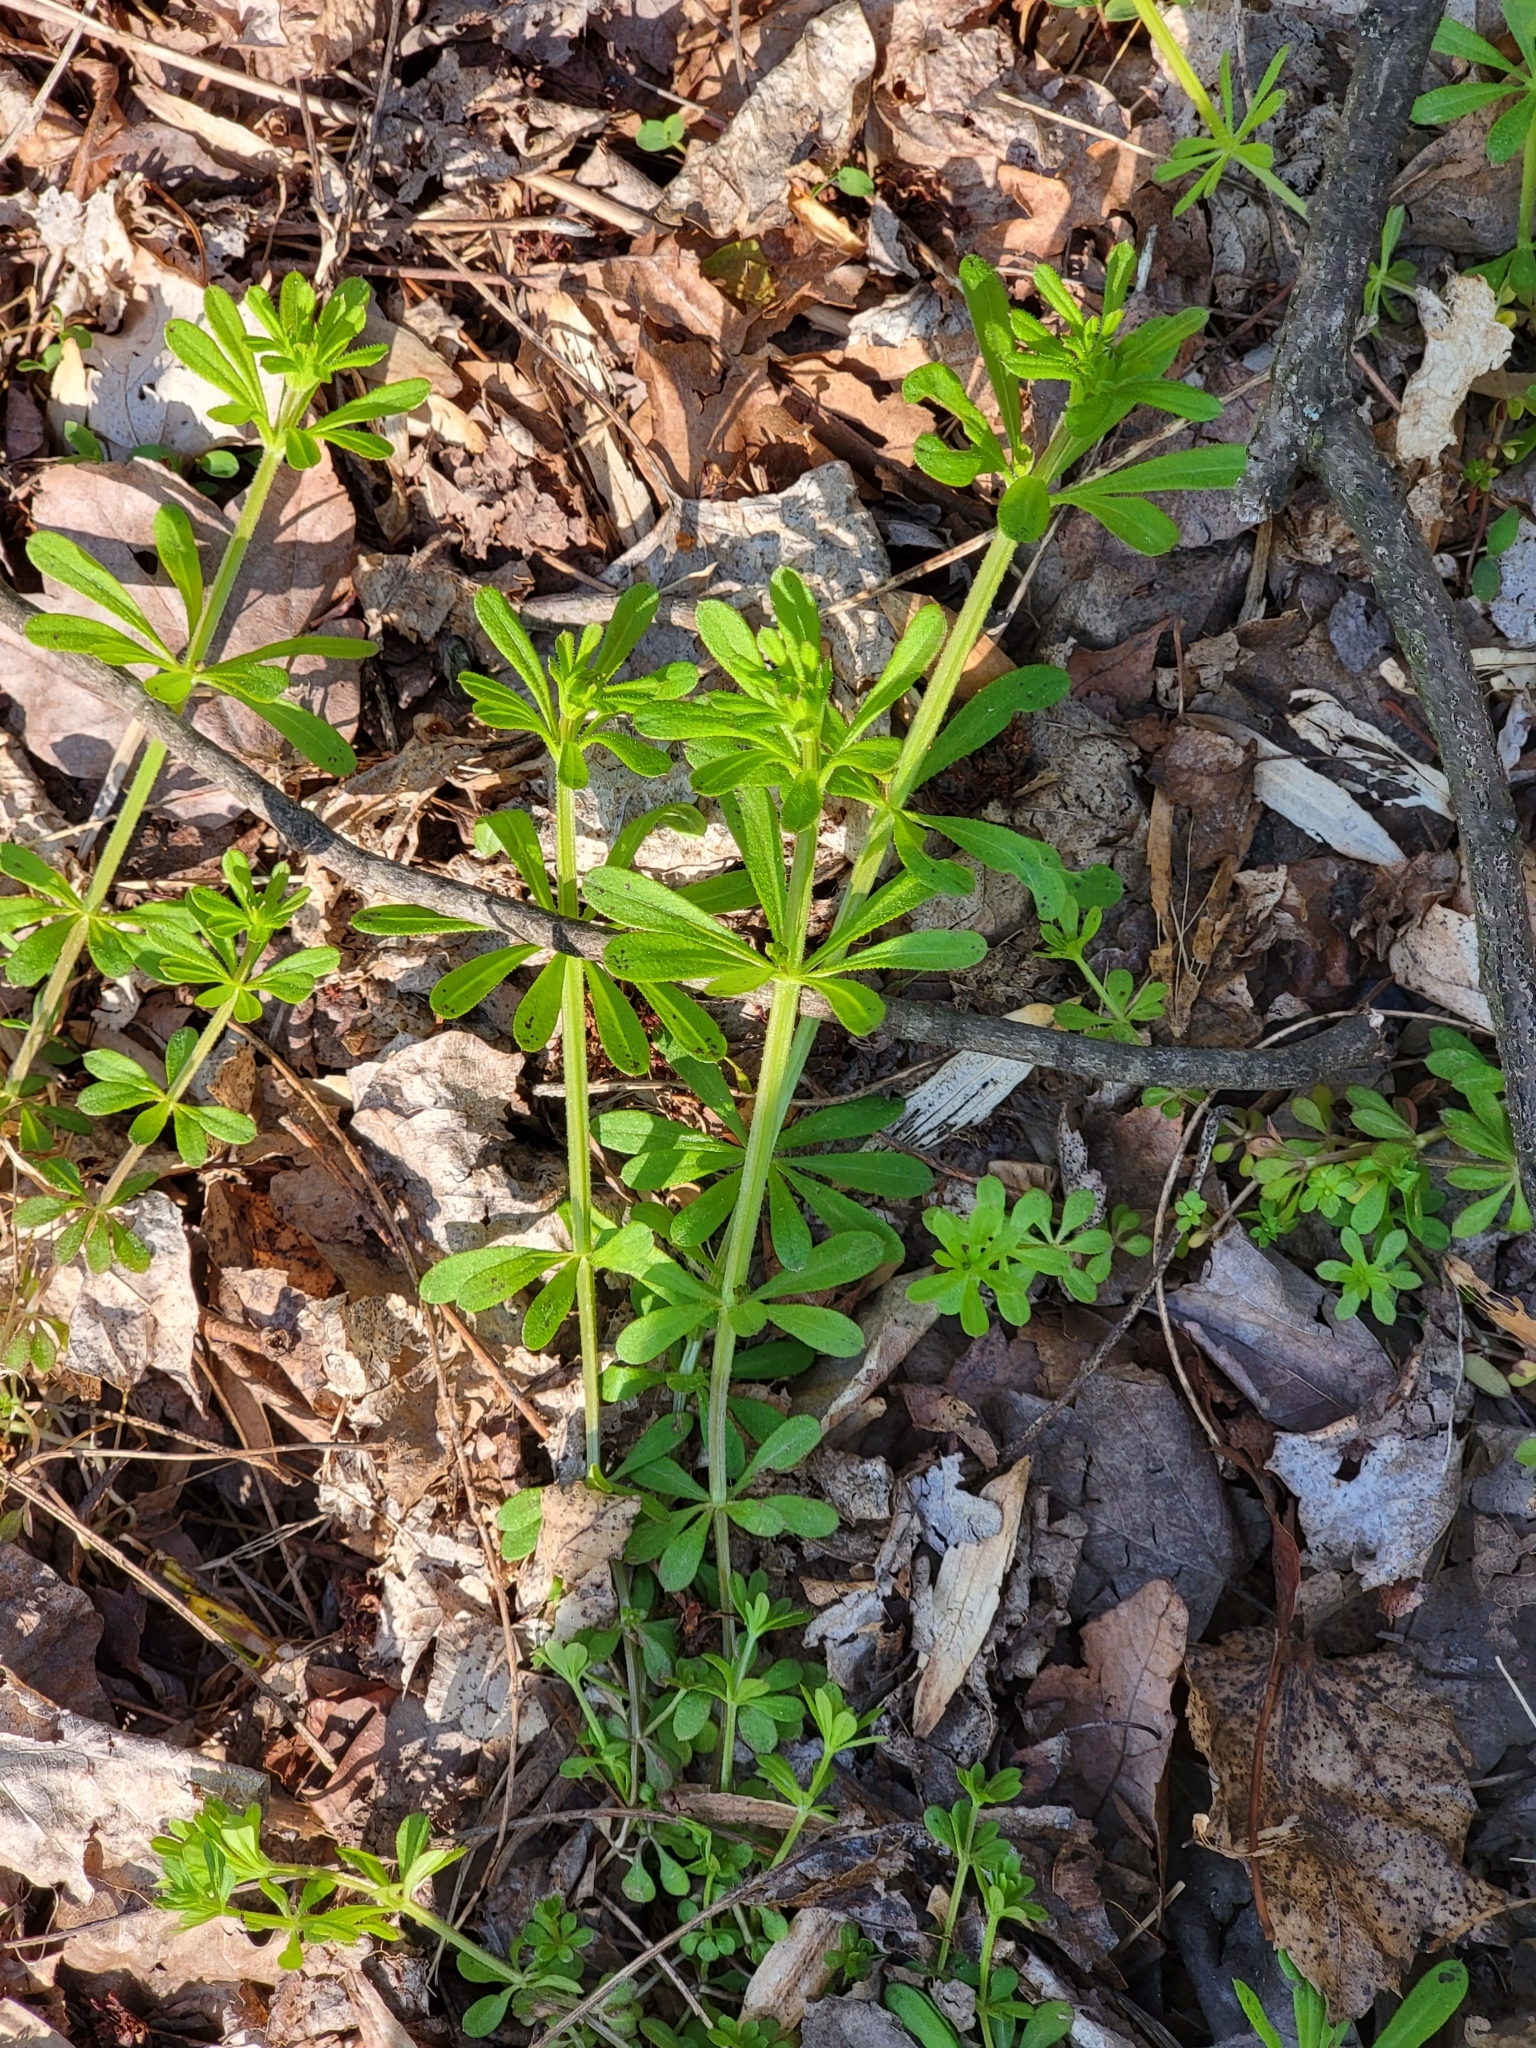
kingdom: Plantae
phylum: Tracheophyta
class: Magnoliopsida
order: Gentianales
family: Rubiaceae
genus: Galium
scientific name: Galium aparine
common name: Cleavers
